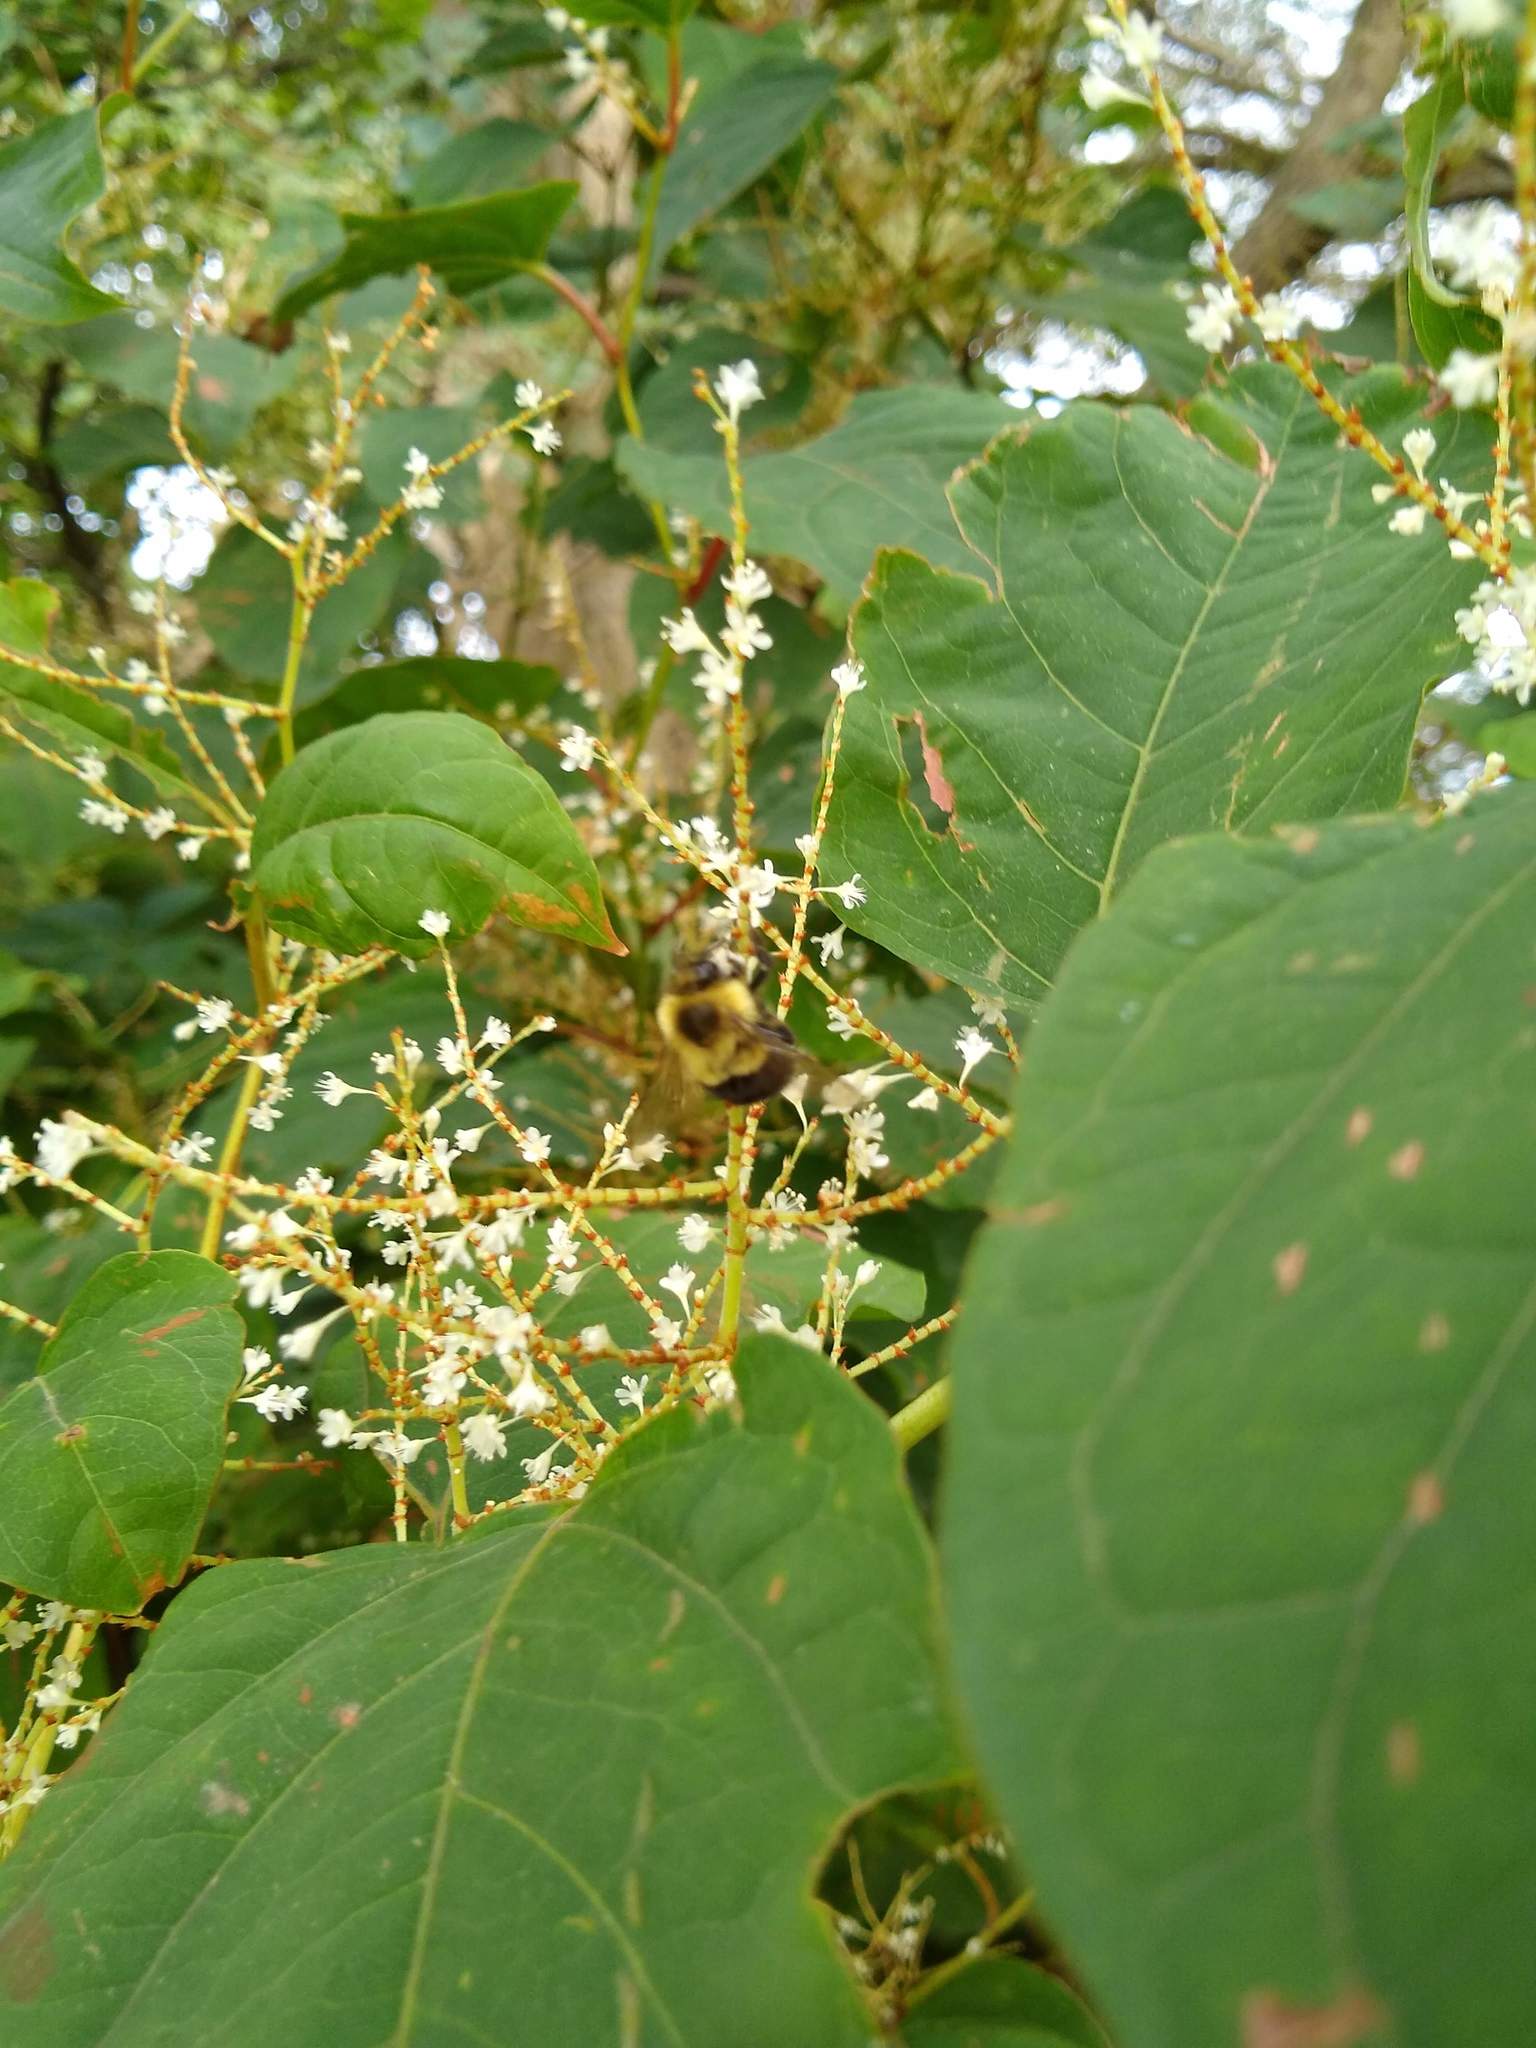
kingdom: Animalia
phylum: Arthropoda
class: Insecta
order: Hymenoptera
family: Apidae
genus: Bombus
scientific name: Bombus impatiens
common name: Common eastern bumble bee
